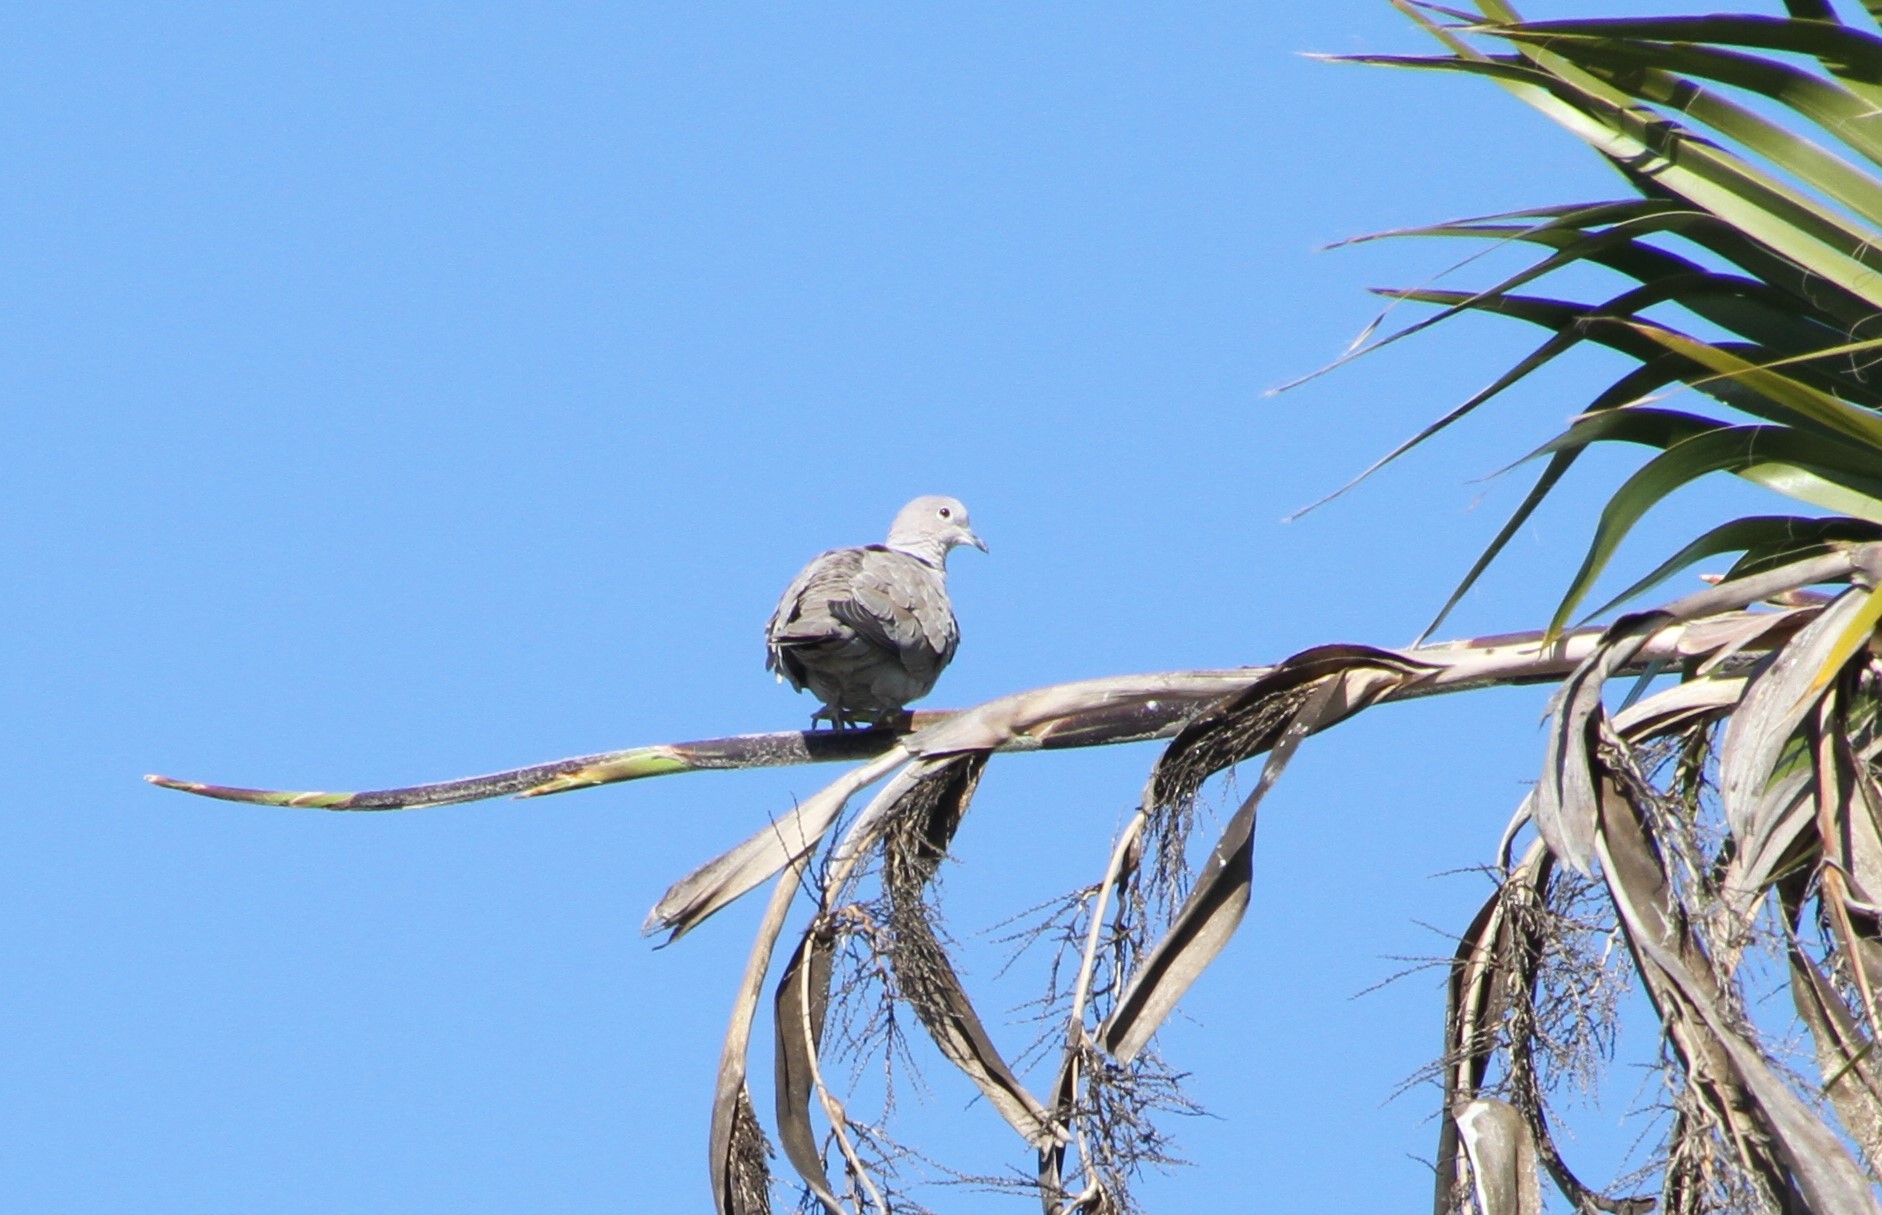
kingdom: Animalia
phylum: Chordata
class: Aves
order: Columbiformes
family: Columbidae
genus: Streptopelia
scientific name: Streptopelia decaocto
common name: Eurasian collared dove
